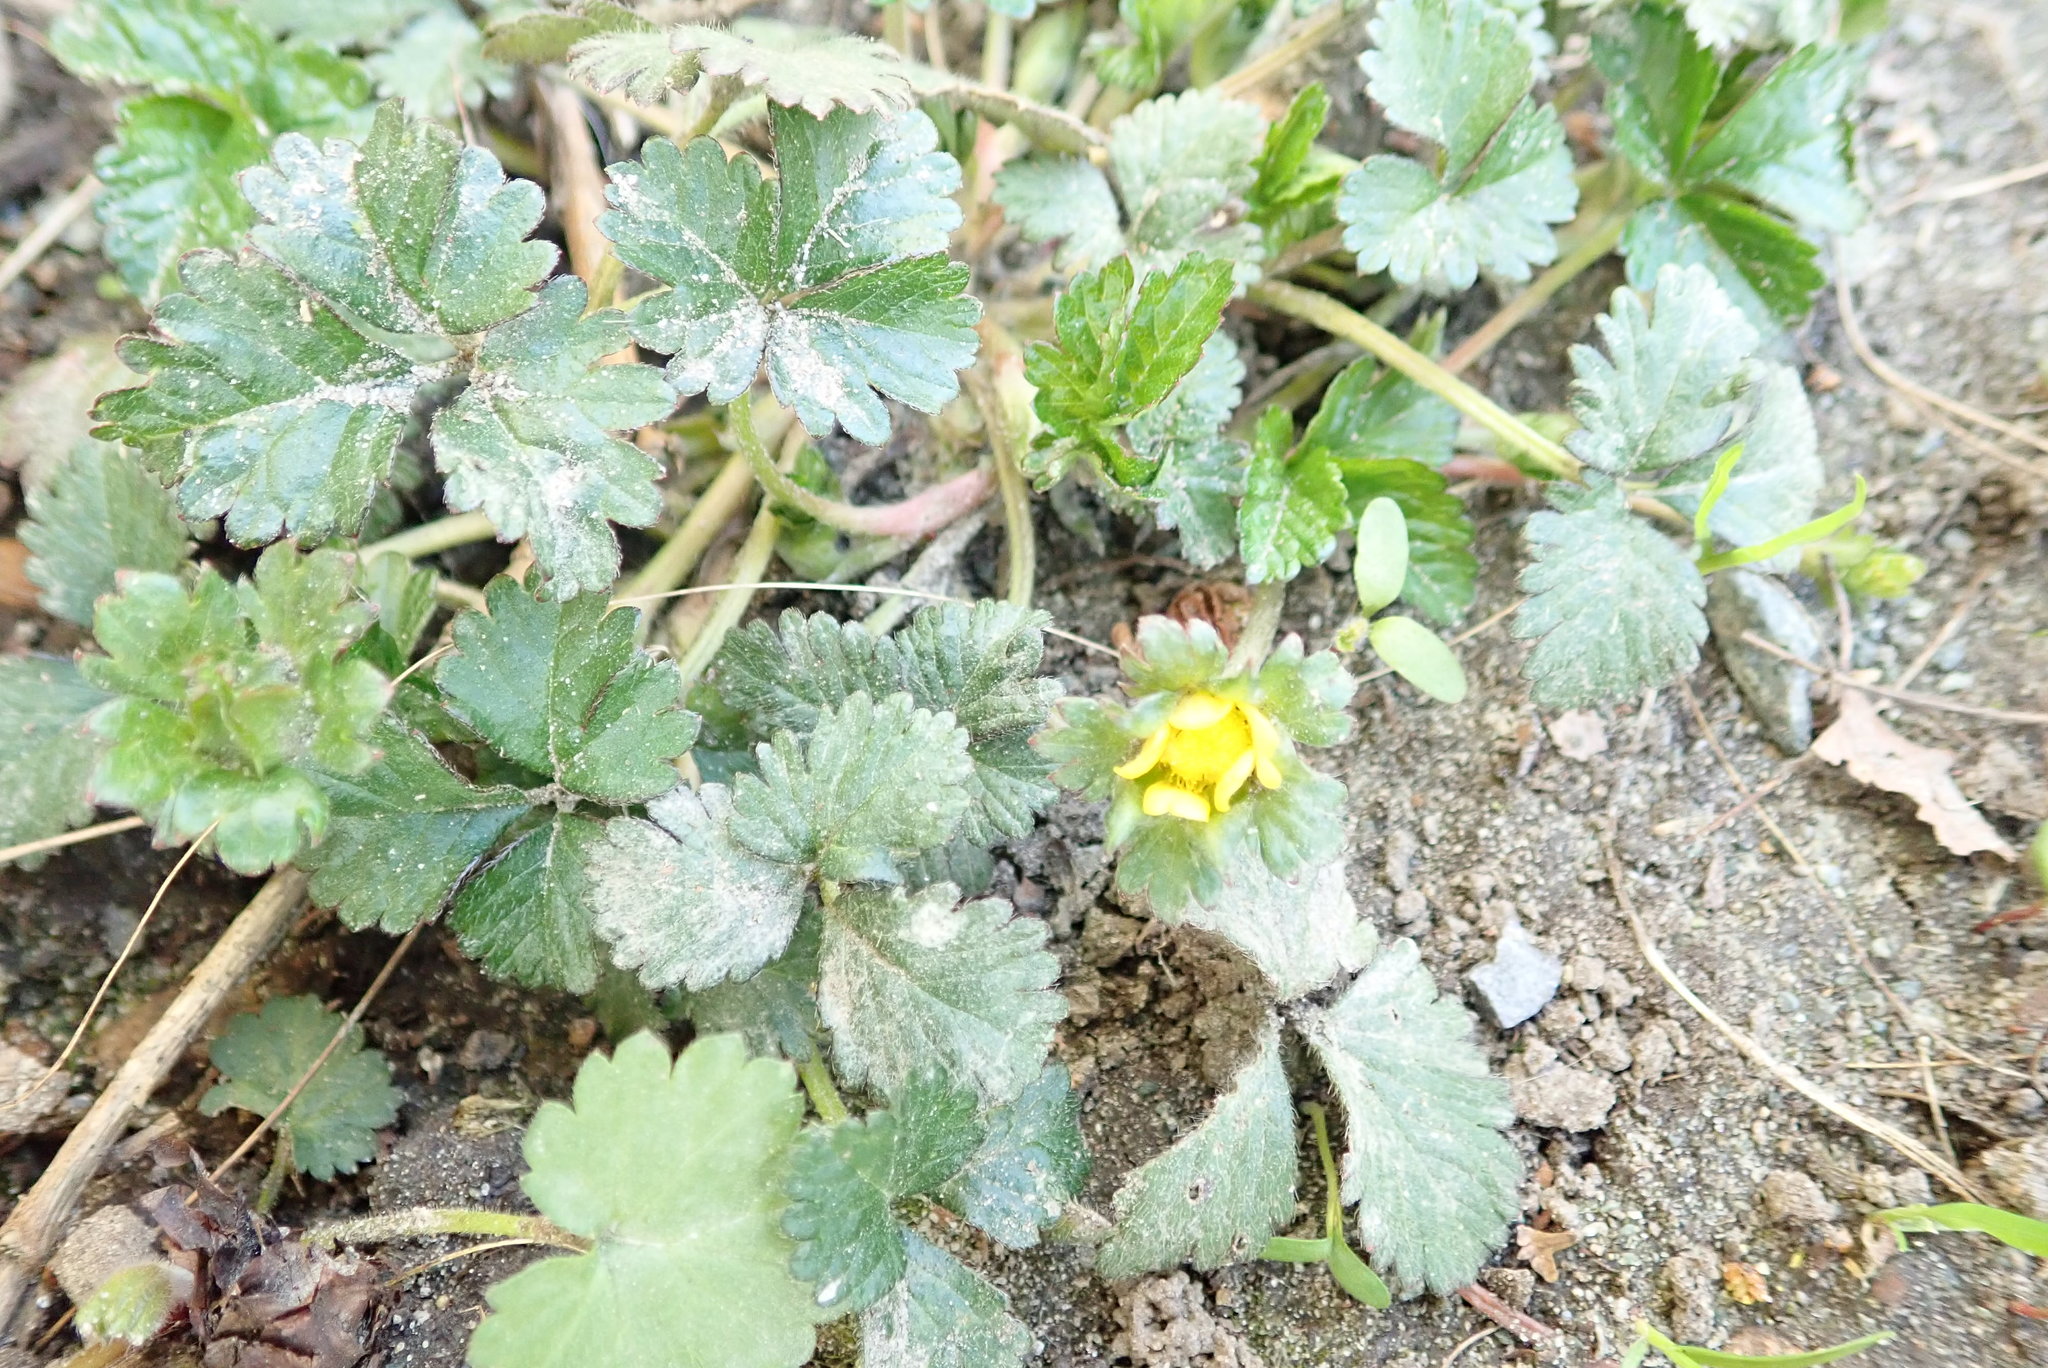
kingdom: Plantae
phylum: Tracheophyta
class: Magnoliopsida
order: Rosales
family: Rosaceae
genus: Potentilla
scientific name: Potentilla indica
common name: Yellow-flowered strawberry
